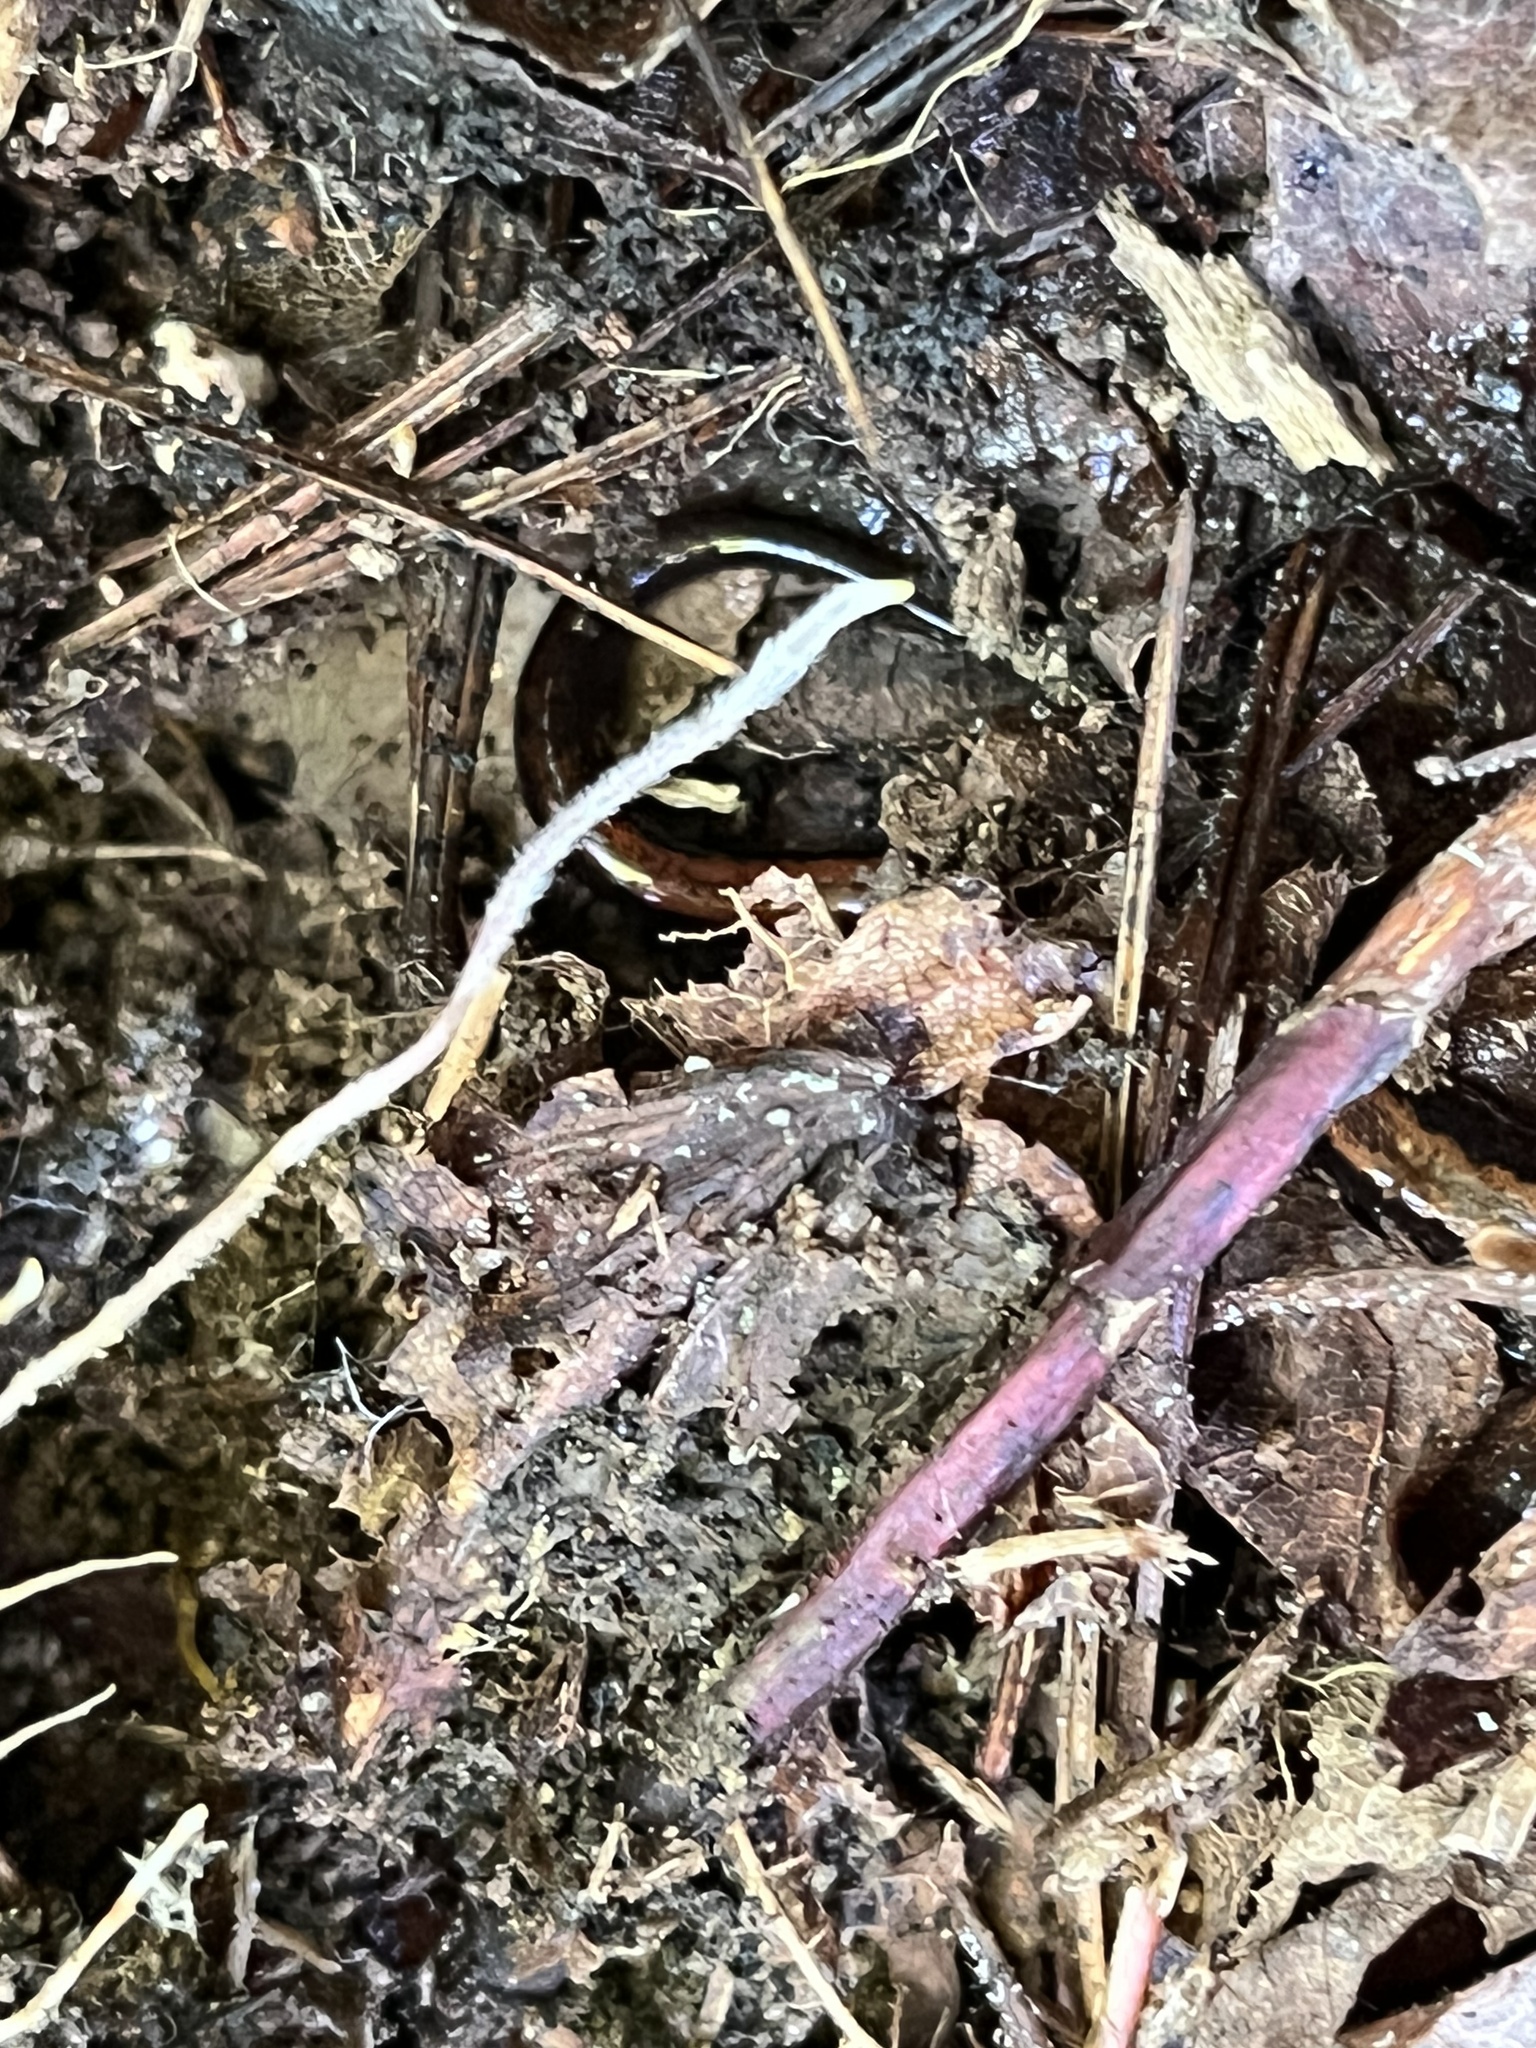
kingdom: Animalia
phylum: Chordata
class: Amphibia
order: Caudata
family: Plethodontidae
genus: Plethodon
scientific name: Plethodon cinereus
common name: Redback salamander
